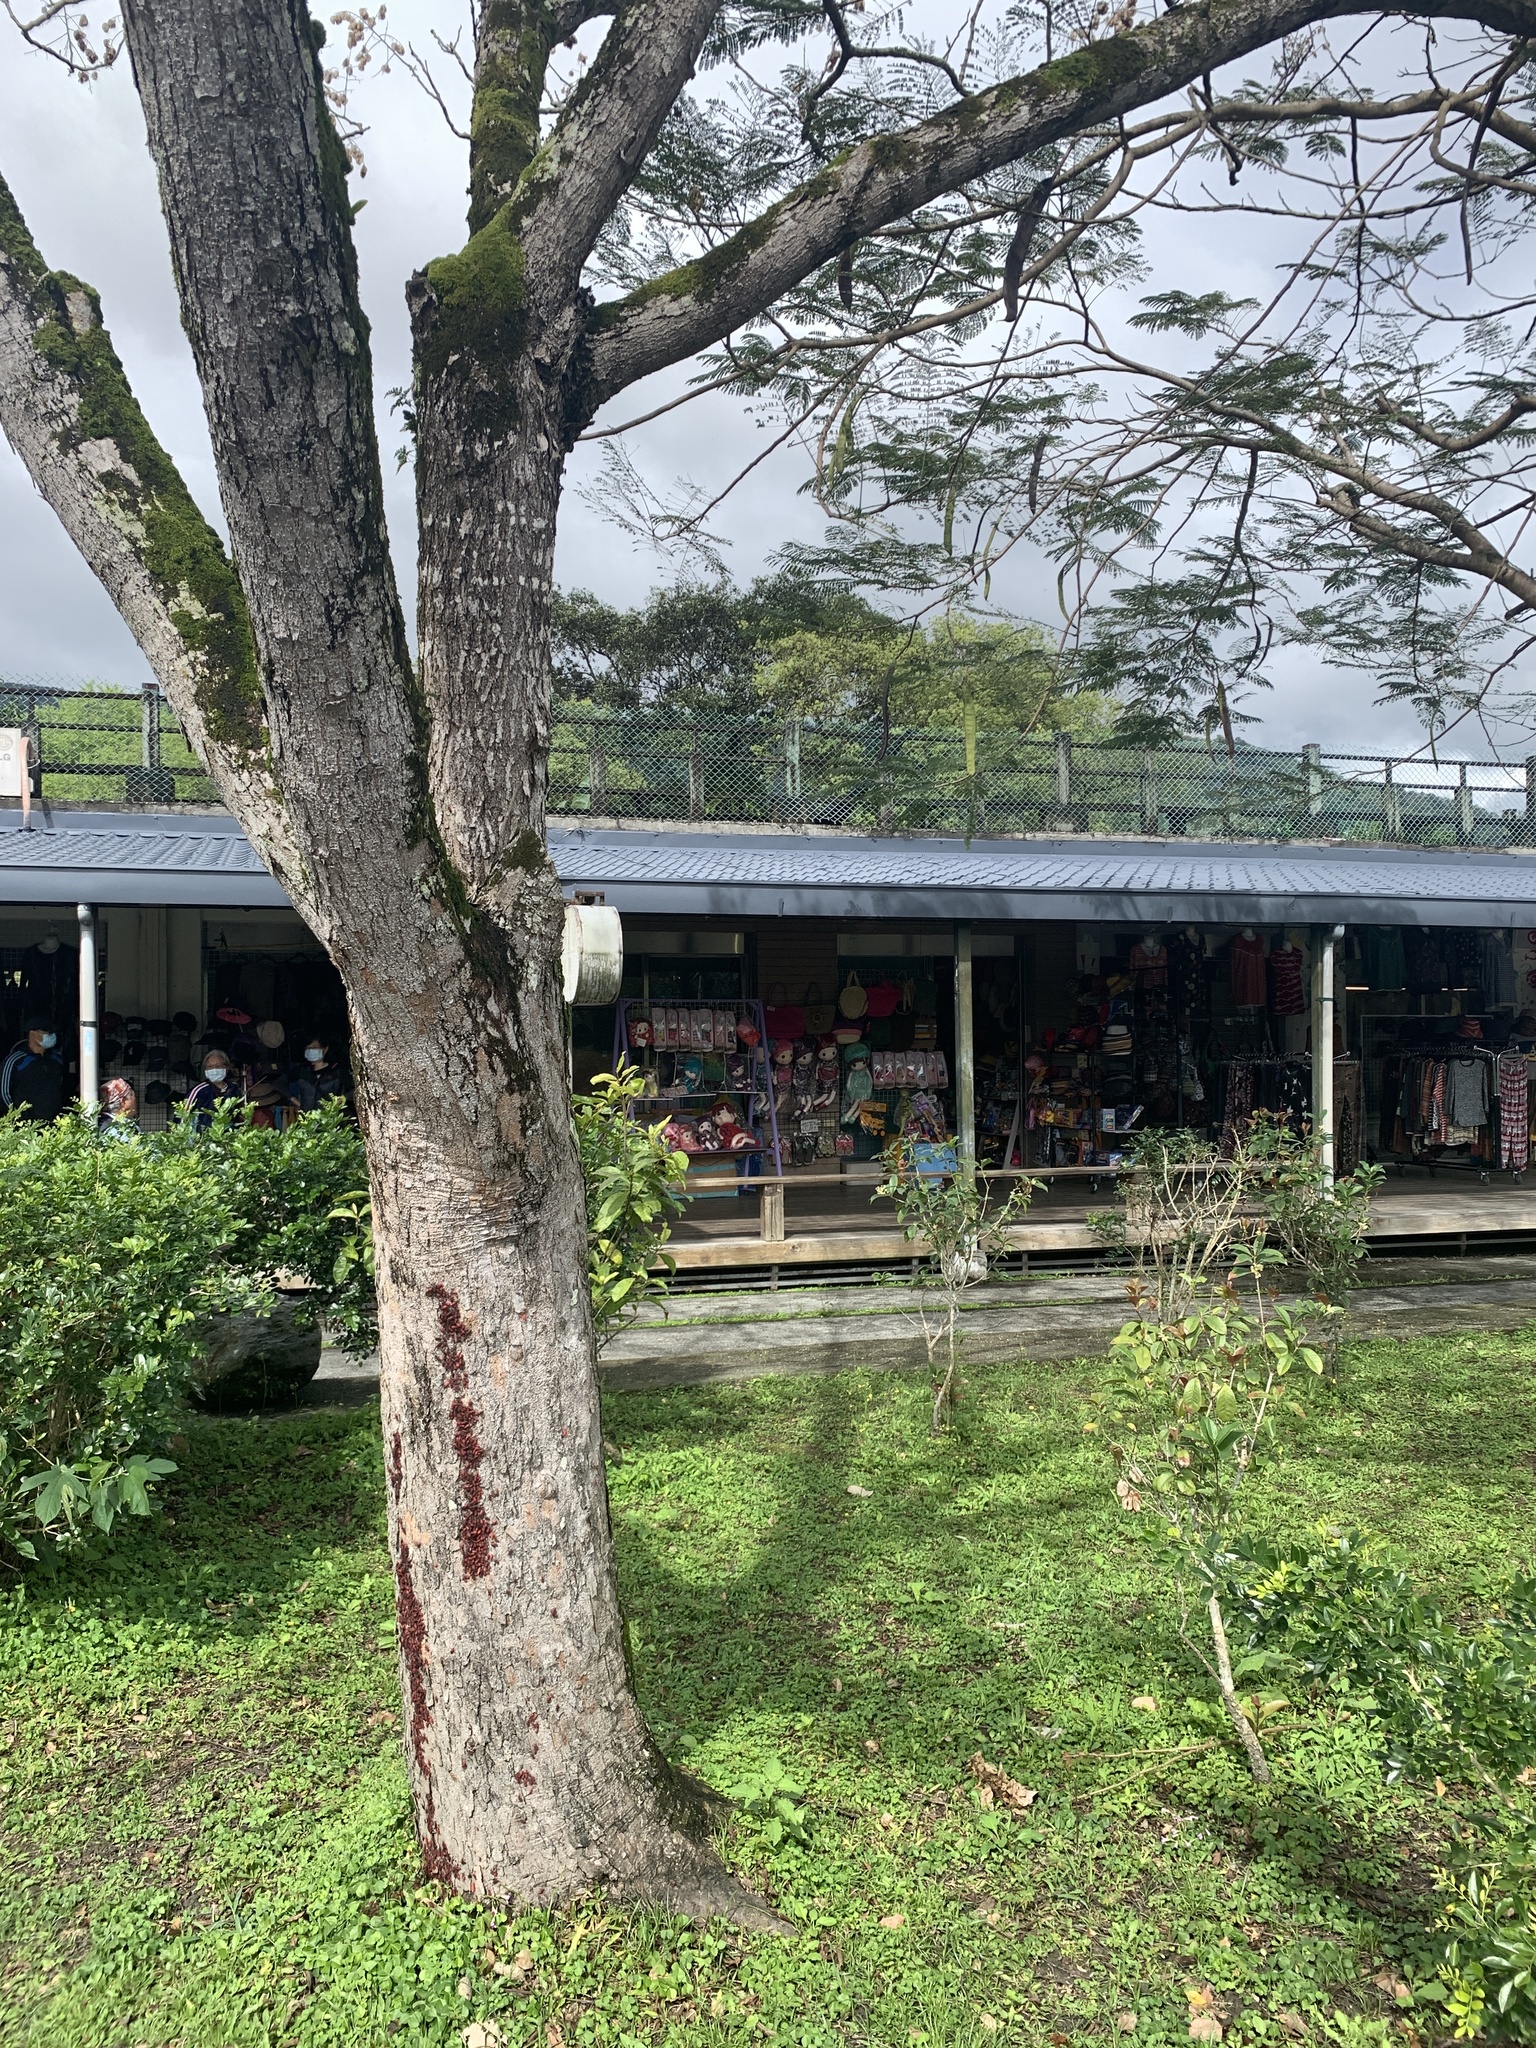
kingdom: Animalia
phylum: Arthropoda
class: Insecta
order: Hemiptera
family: Rhopalidae
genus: Leptocoris
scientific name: Leptocoris vicinus
